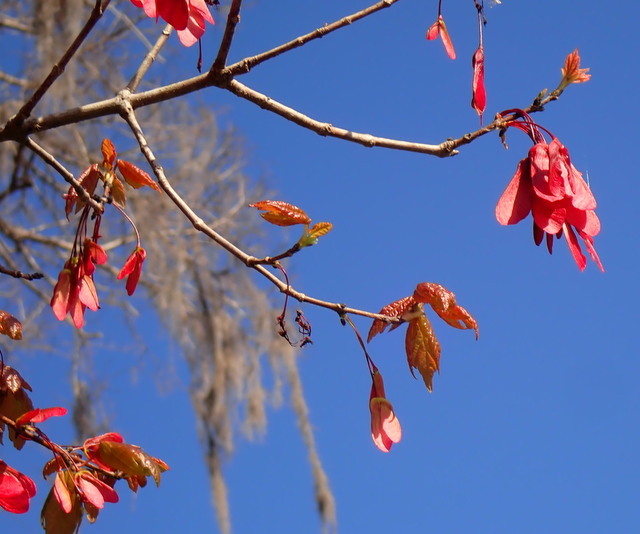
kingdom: Plantae
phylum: Tracheophyta
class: Magnoliopsida
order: Sapindales
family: Sapindaceae
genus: Acer
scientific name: Acer rubrum
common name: Red maple
